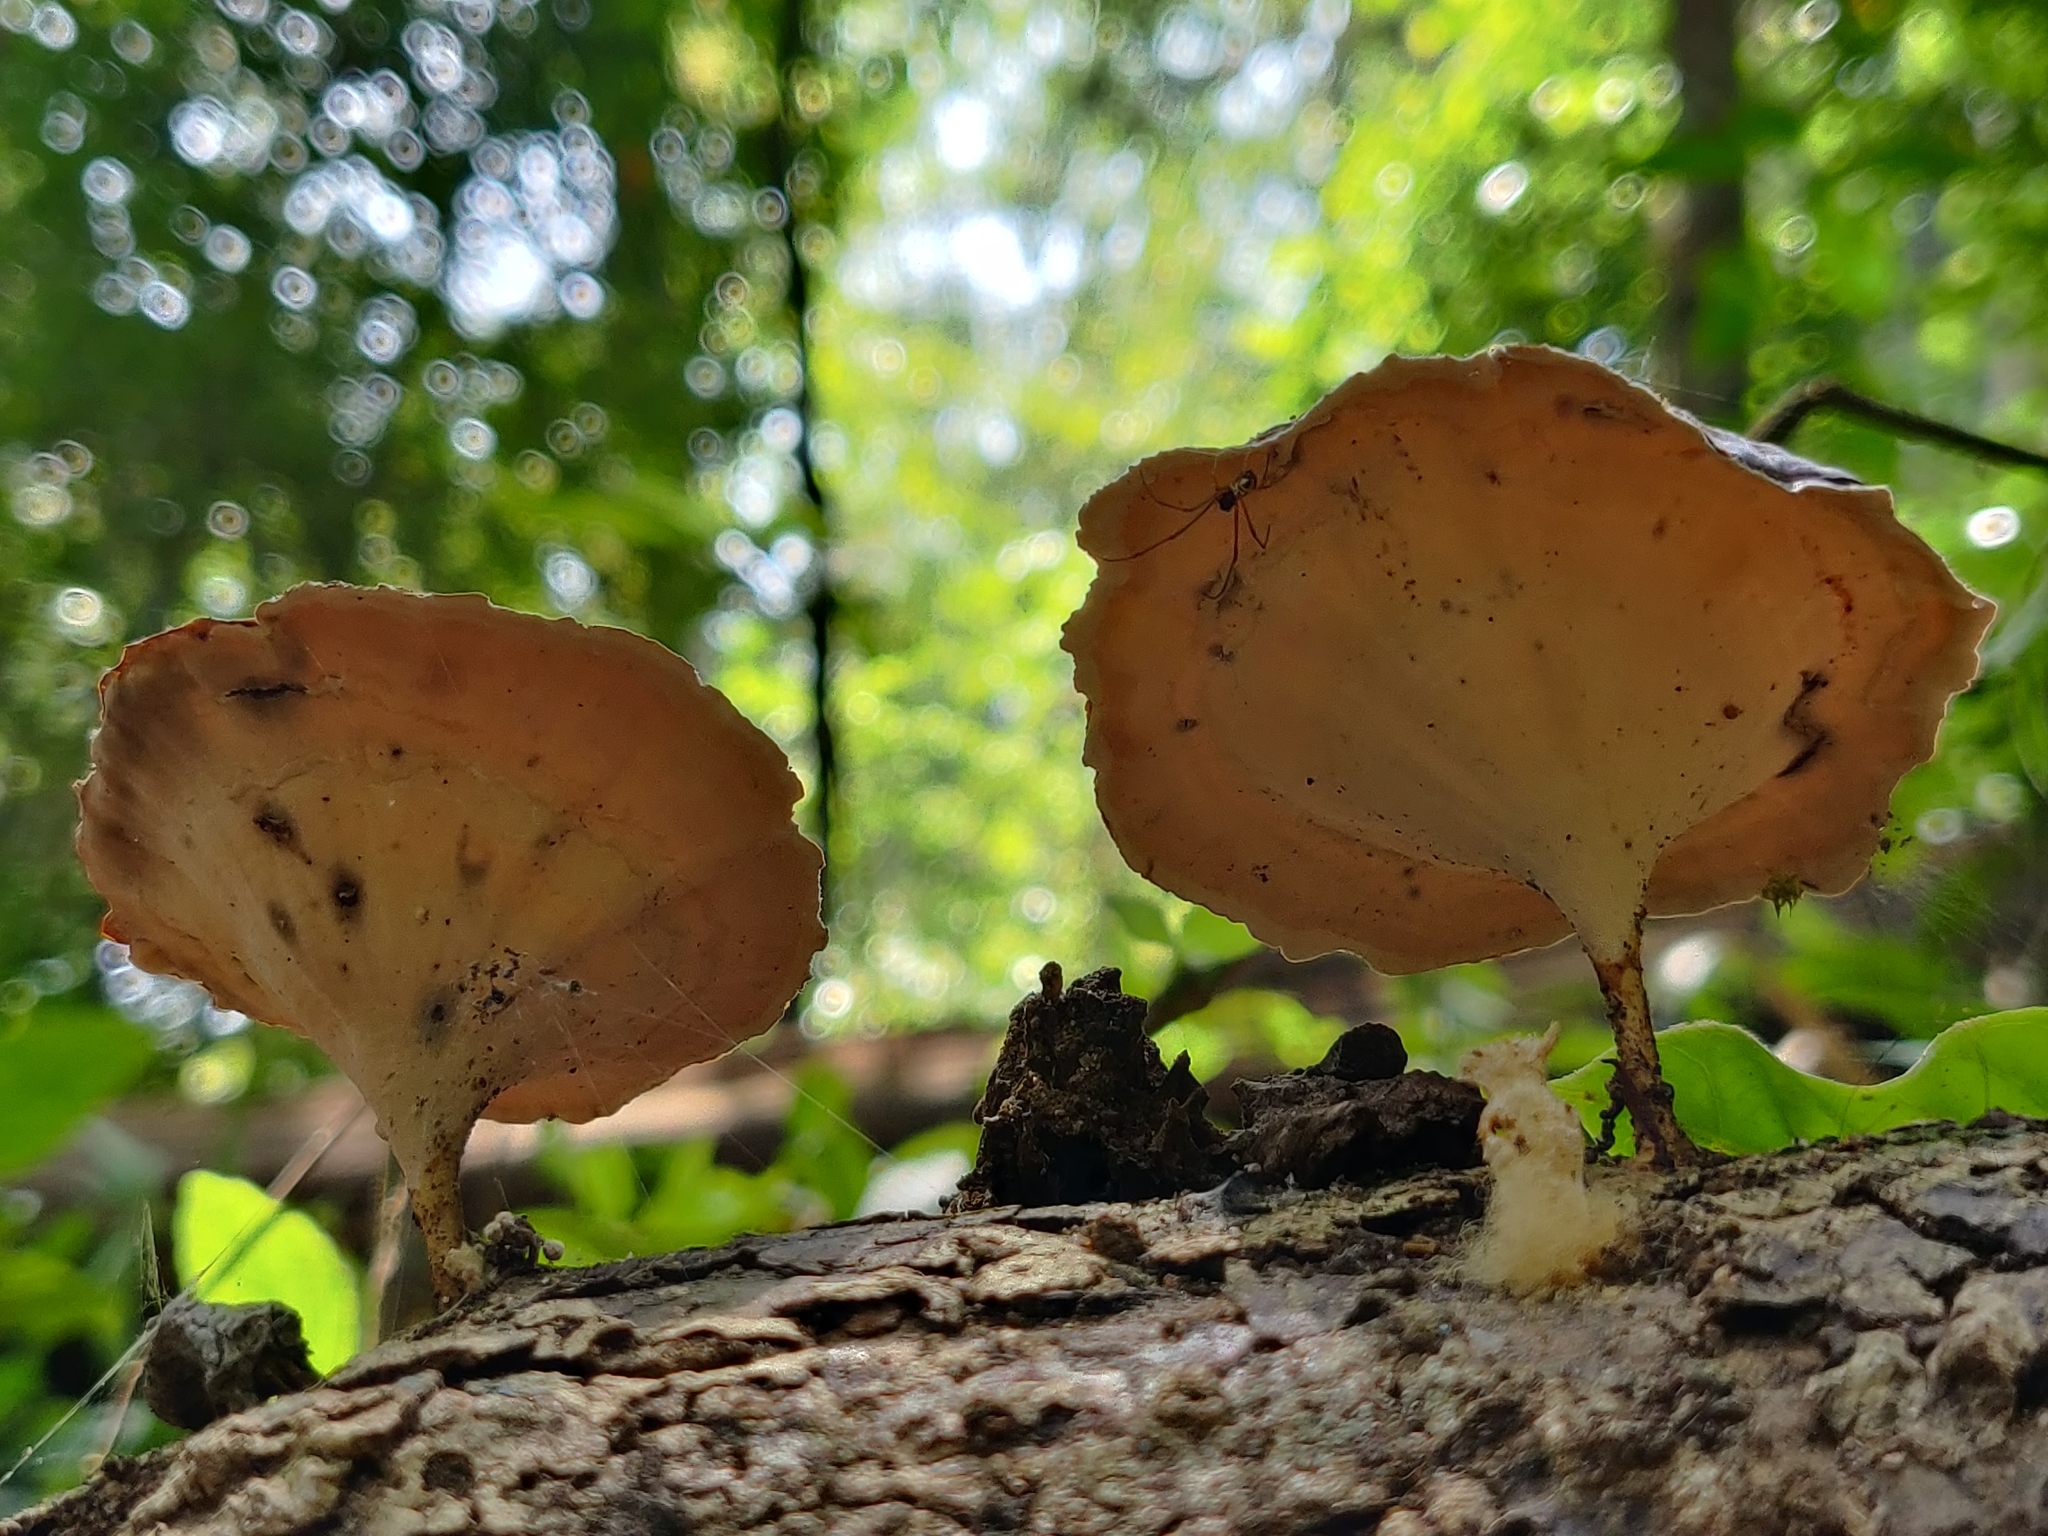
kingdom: Fungi
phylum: Basidiomycota
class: Agaricomycetes
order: Polyporales
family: Polyporaceae
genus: Microporus
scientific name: Microporus xanthopus
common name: Yellow-stemmed micropore
